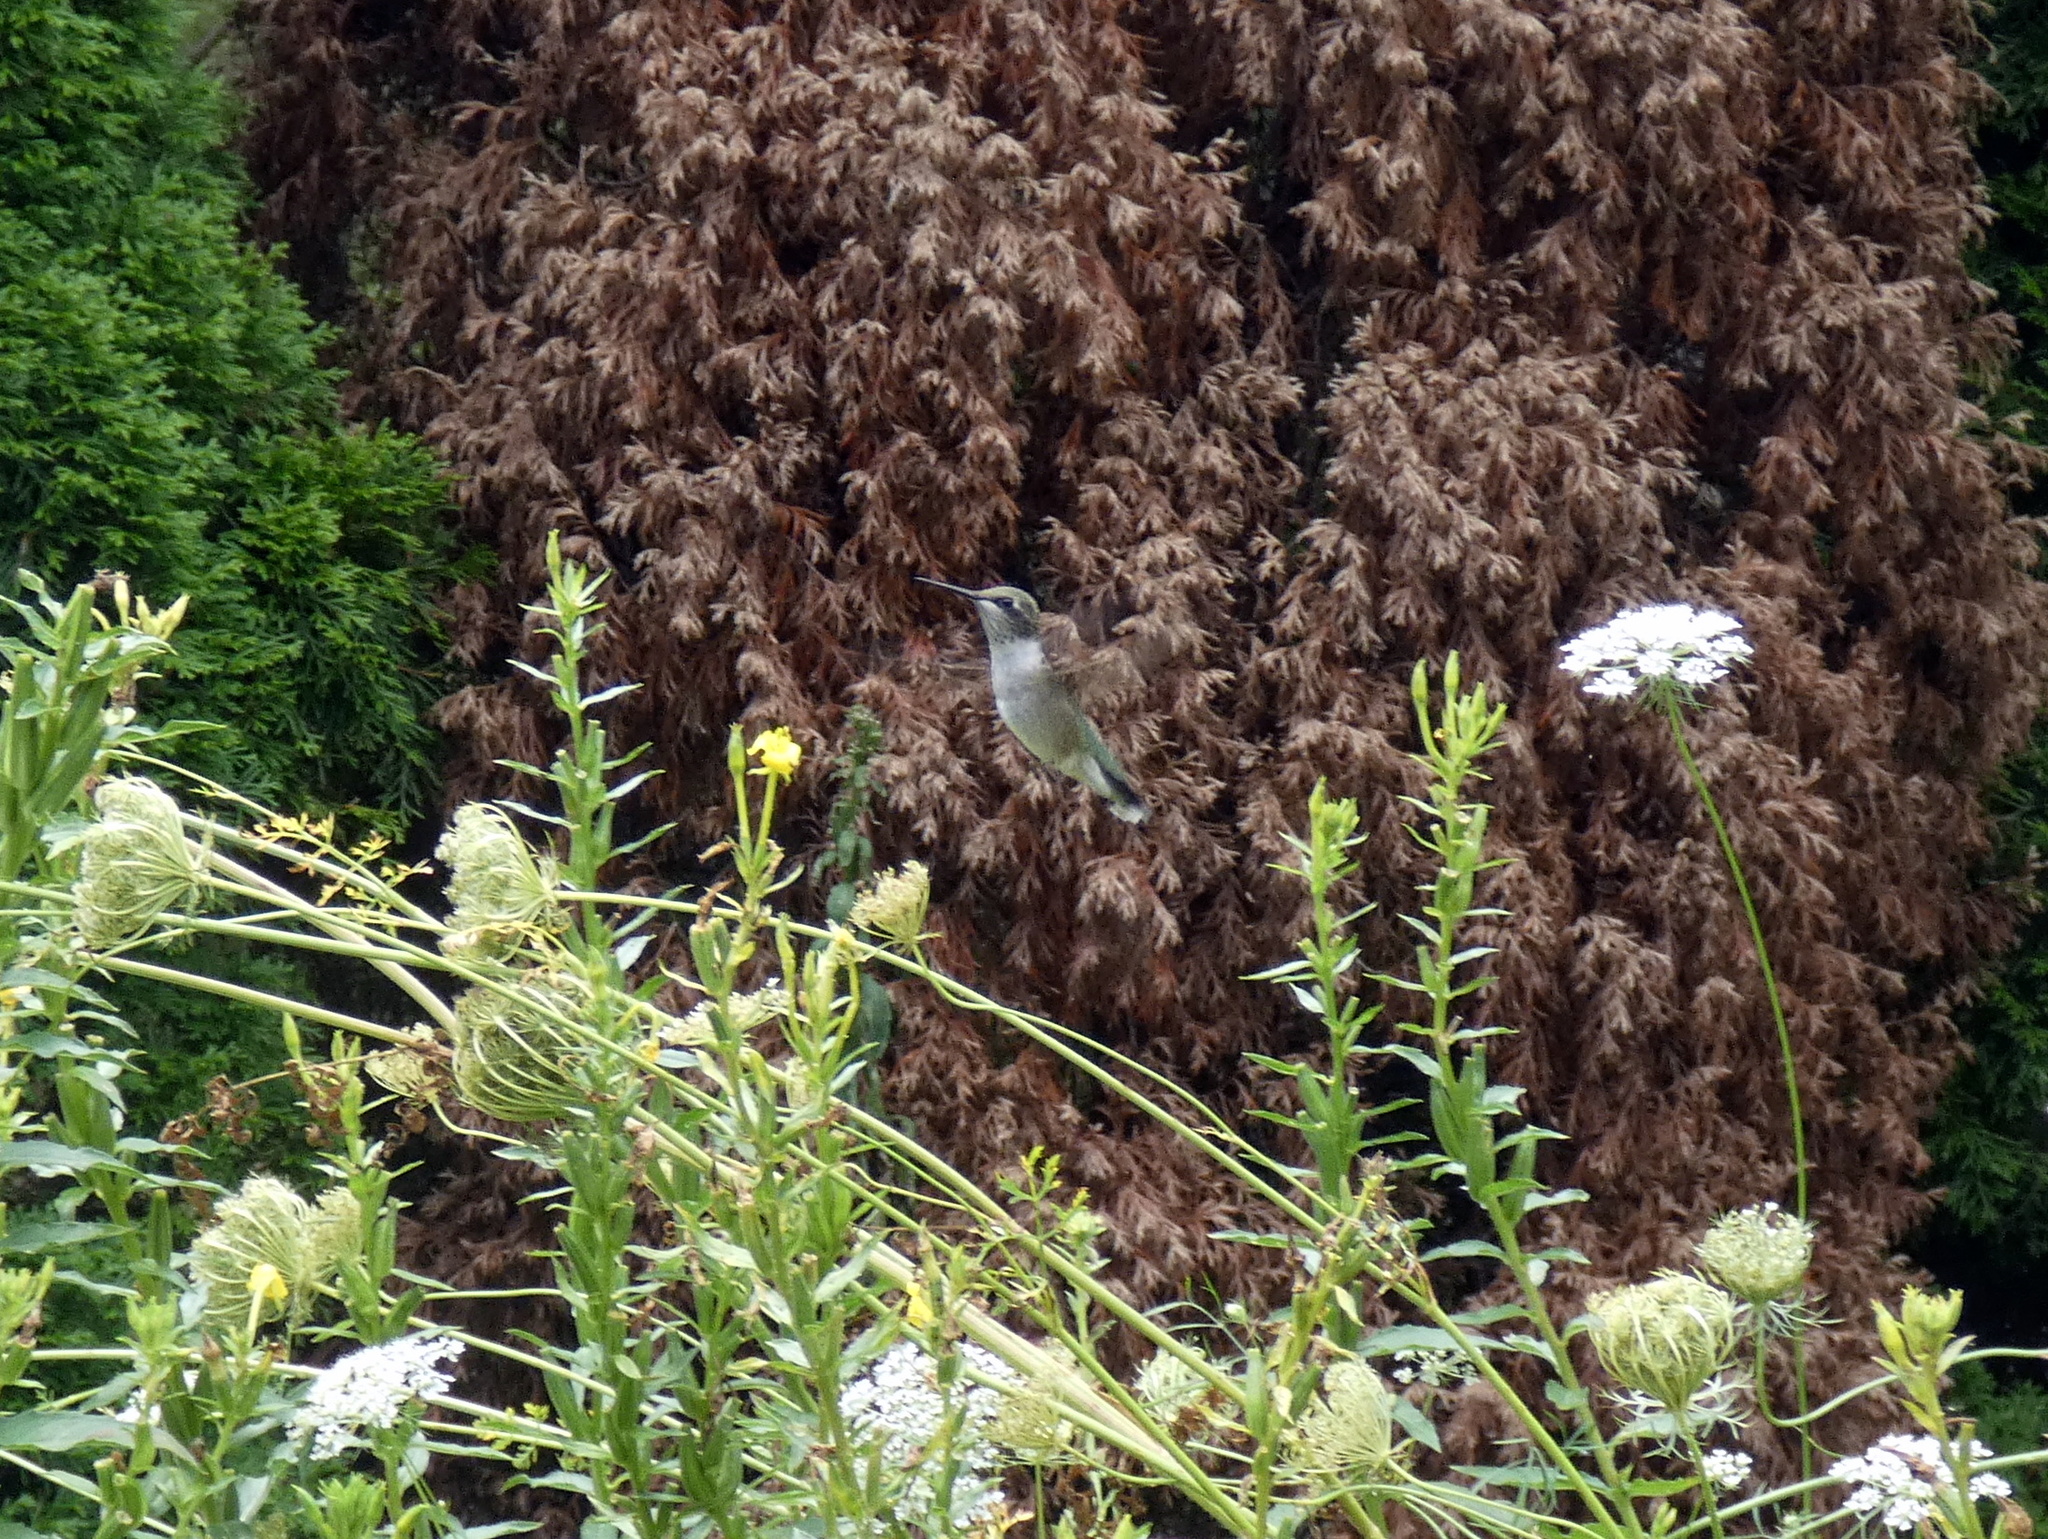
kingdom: Animalia
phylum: Chordata
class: Aves
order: Apodiformes
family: Trochilidae
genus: Archilochus
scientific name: Archilochus colubris
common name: Ruby-throated hummingbird
